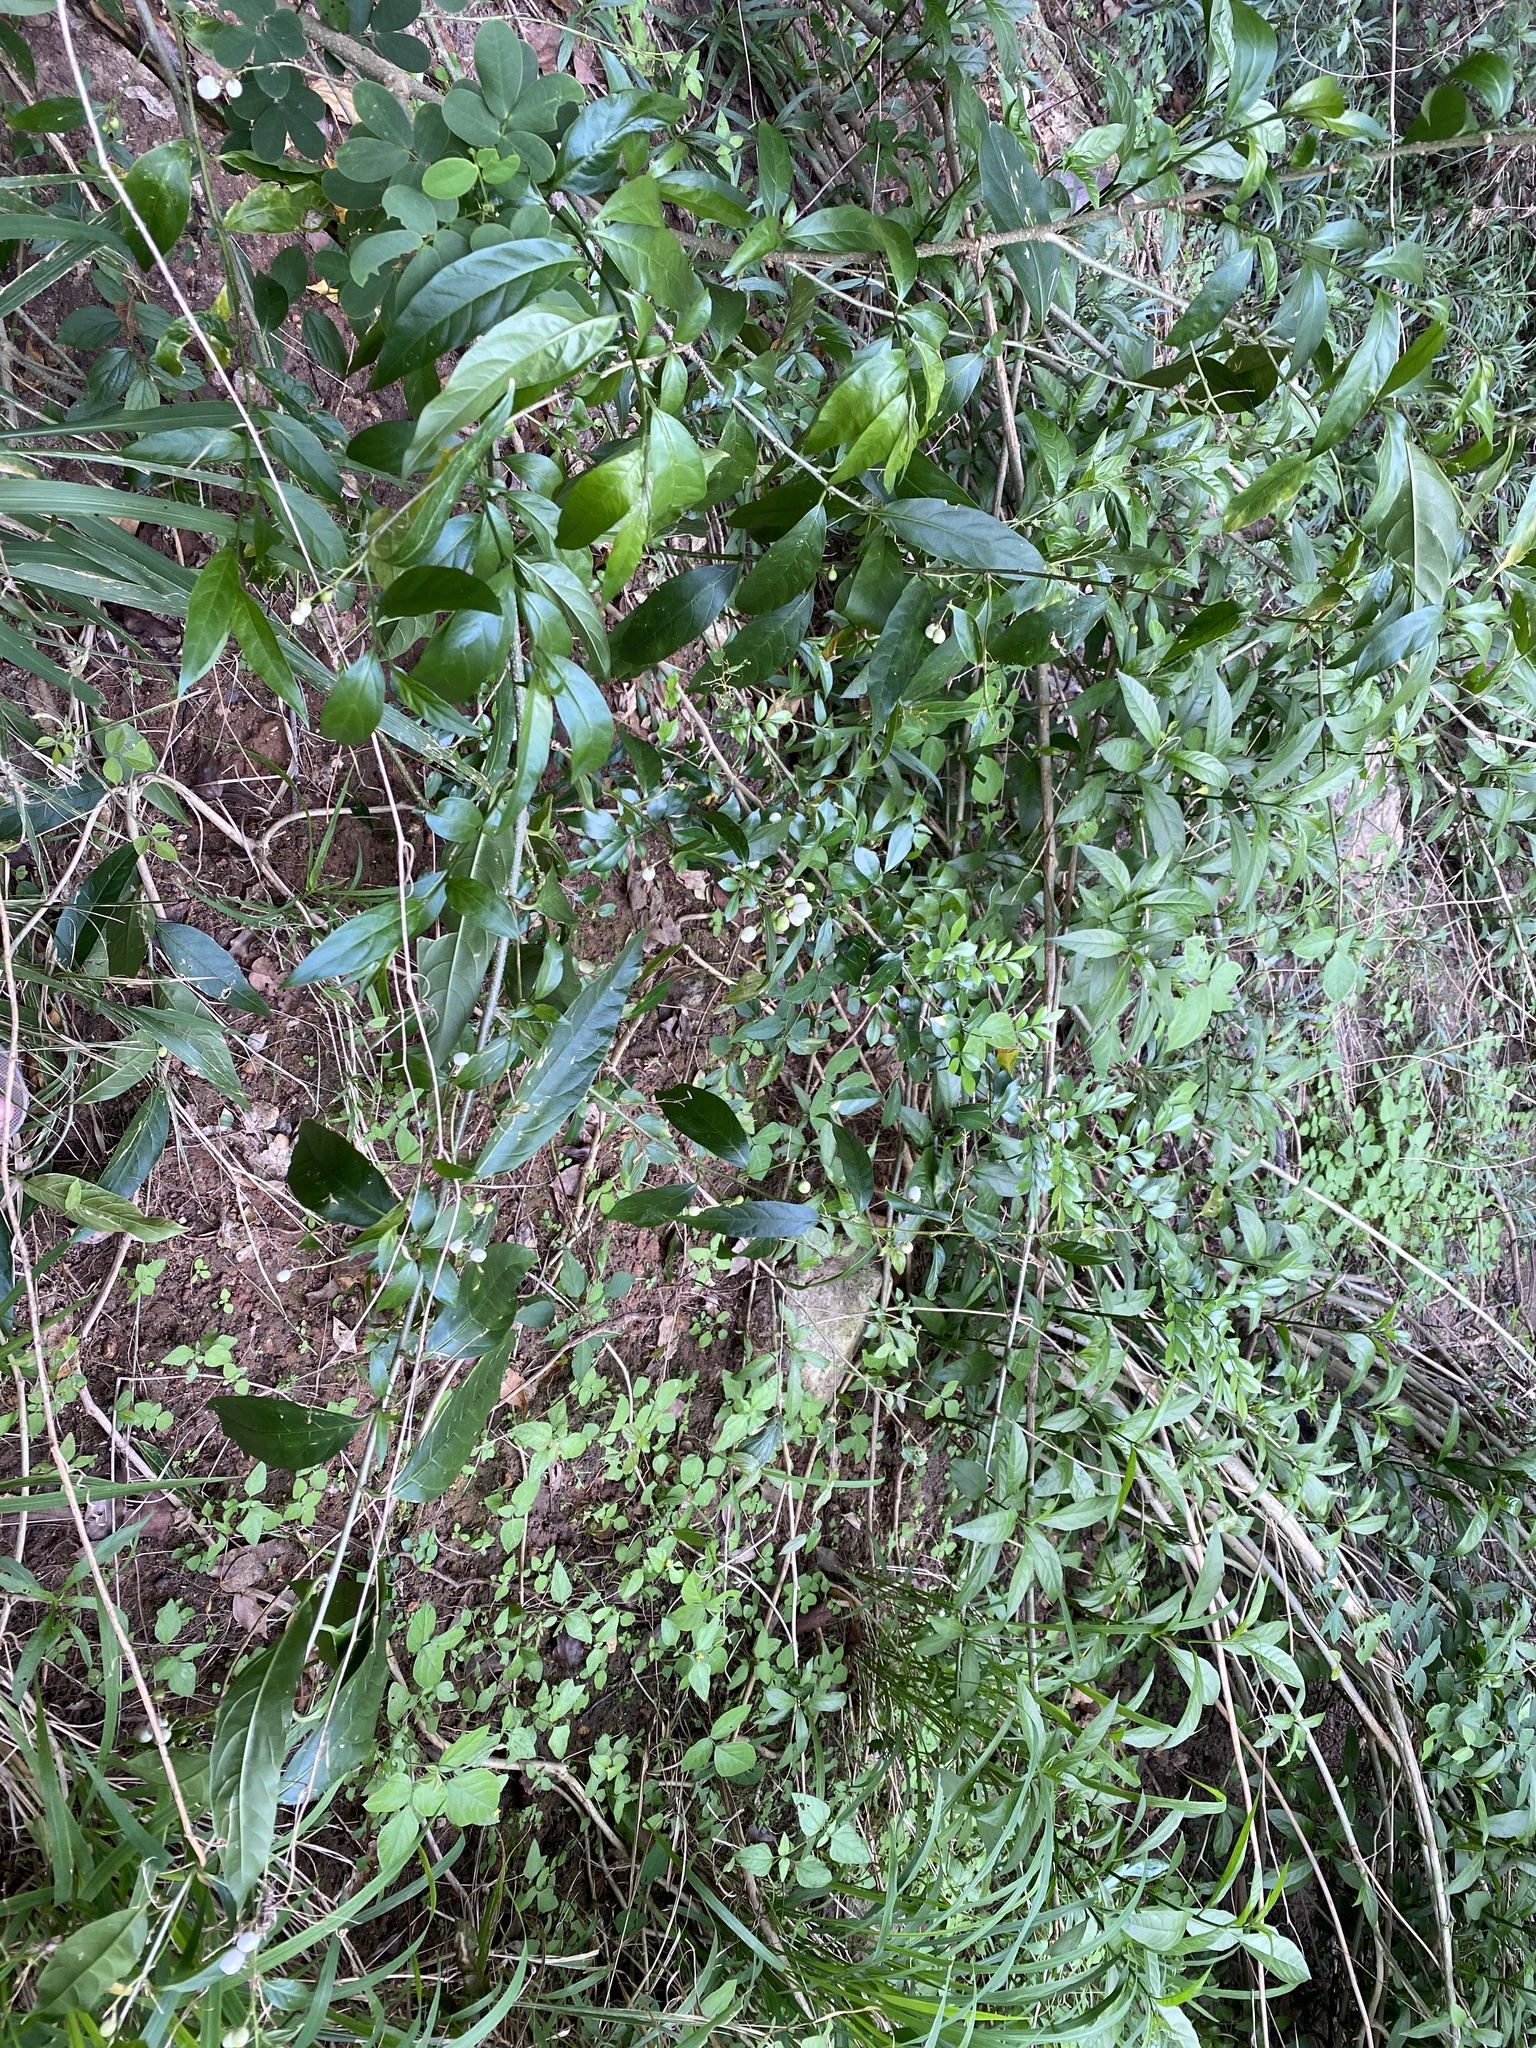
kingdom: Plantae
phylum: Tracheophyta
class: Magnoliopsida
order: Solanales
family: Solanaceae
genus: Cestrum
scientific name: Cestrum nocturnum
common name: Night jessamine
